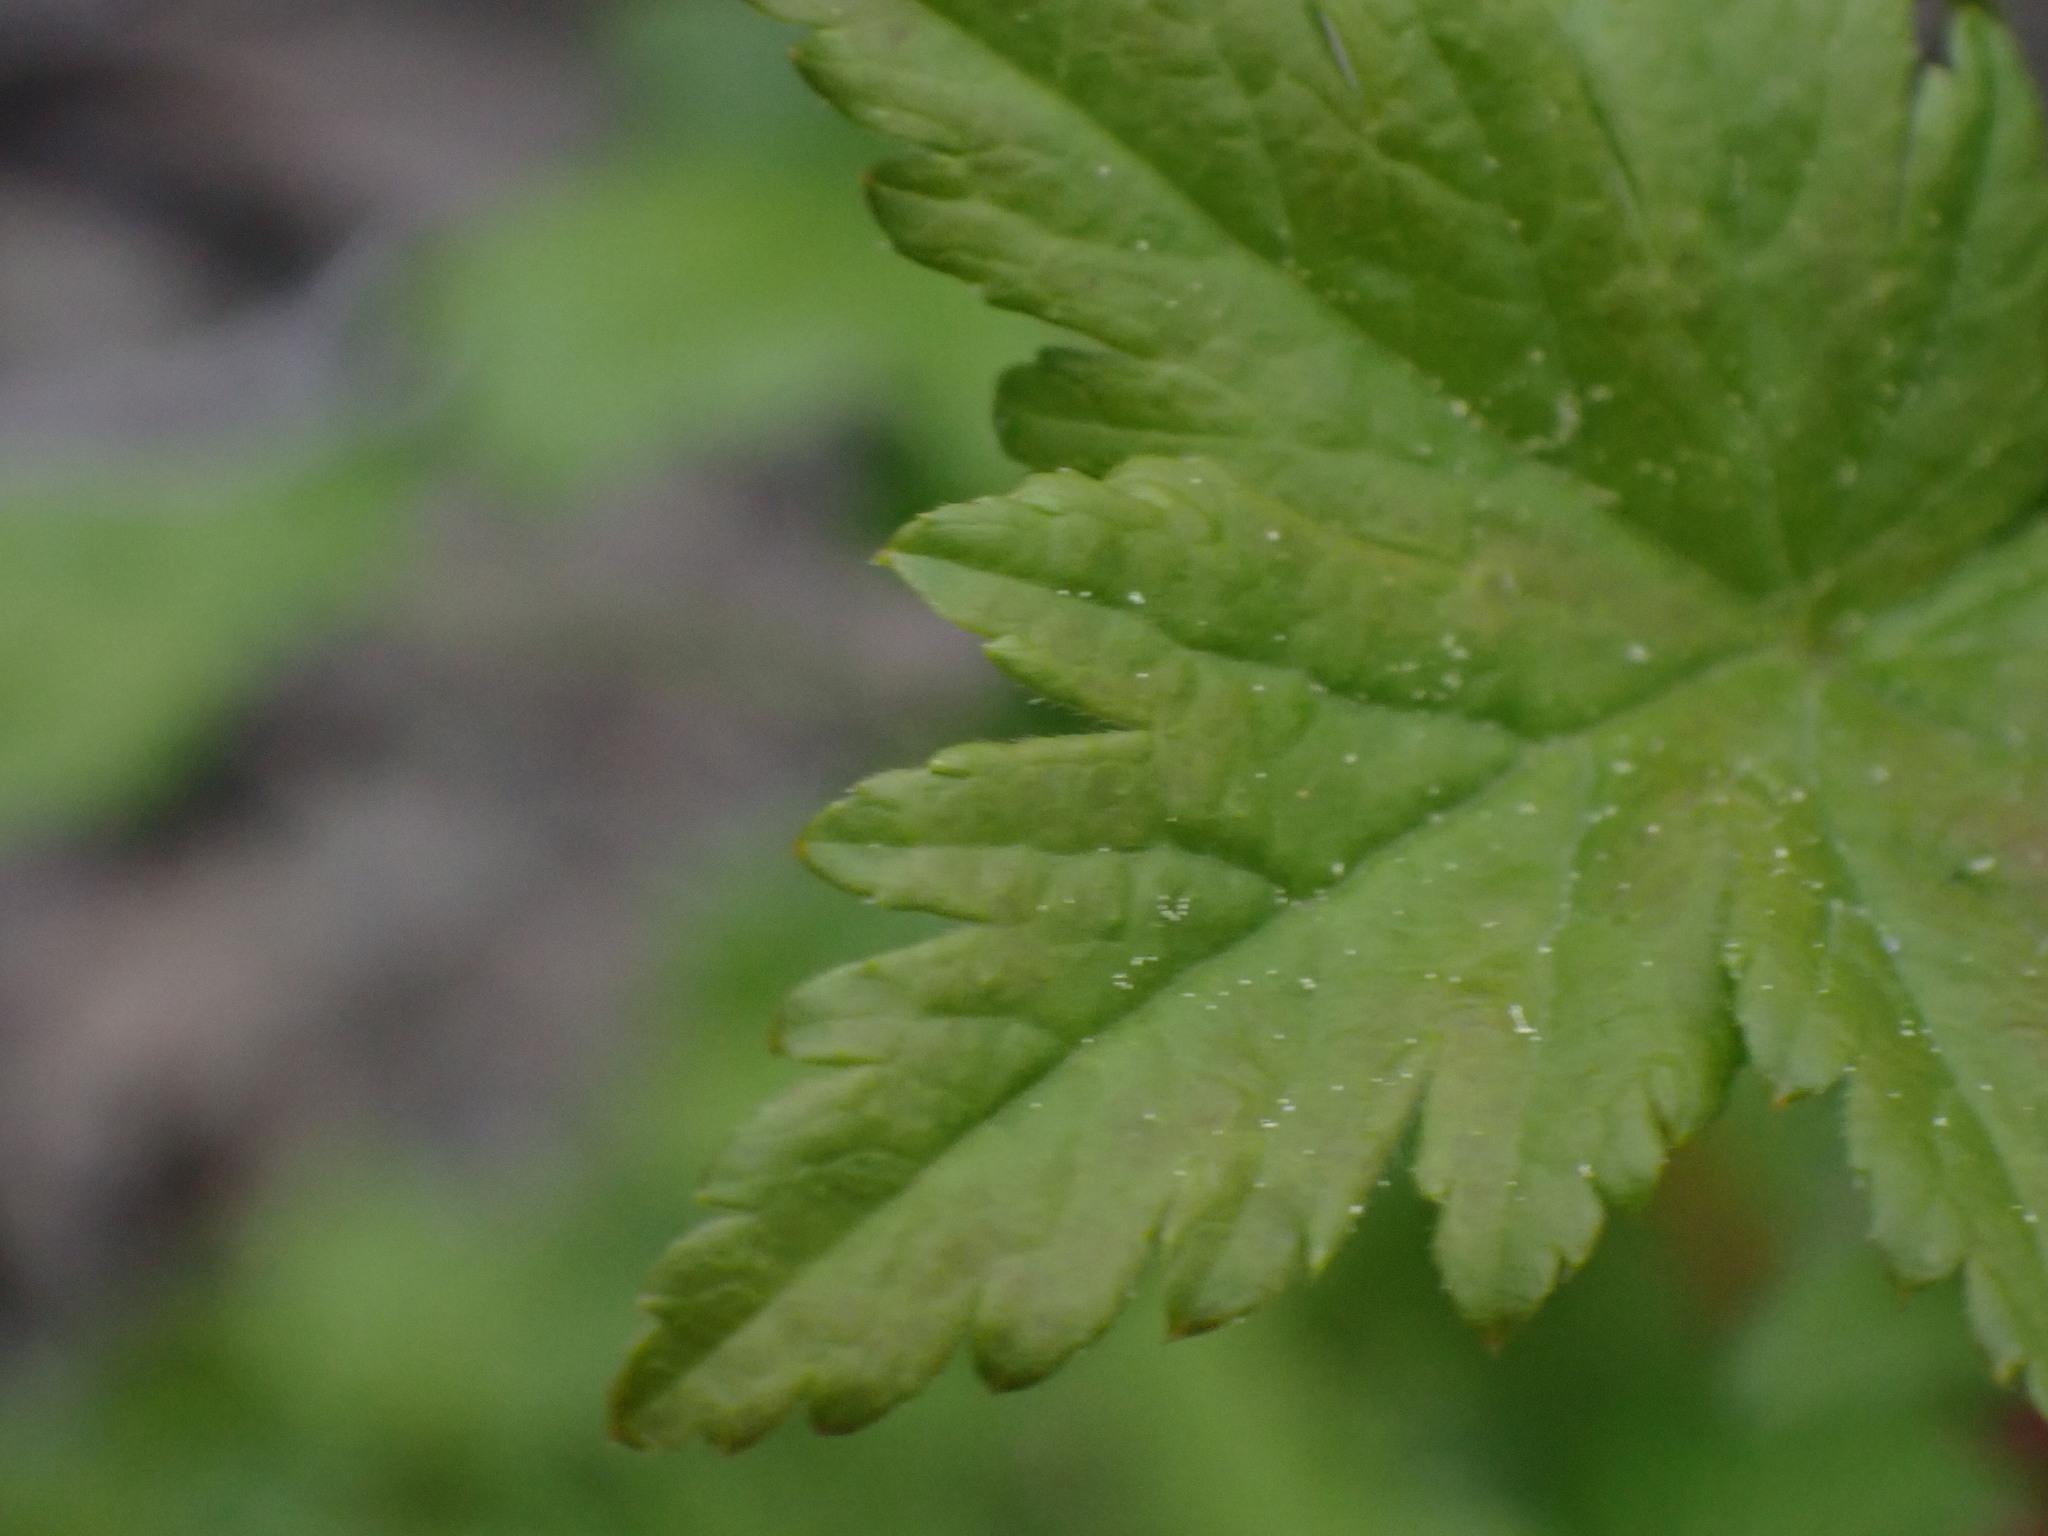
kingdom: Plantae
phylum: Tracheophyta
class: Magnoliopsida
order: Saxifragales
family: Grossulariaceae
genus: Ribes
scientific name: Ribes lacustre
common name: Black gooseberry
